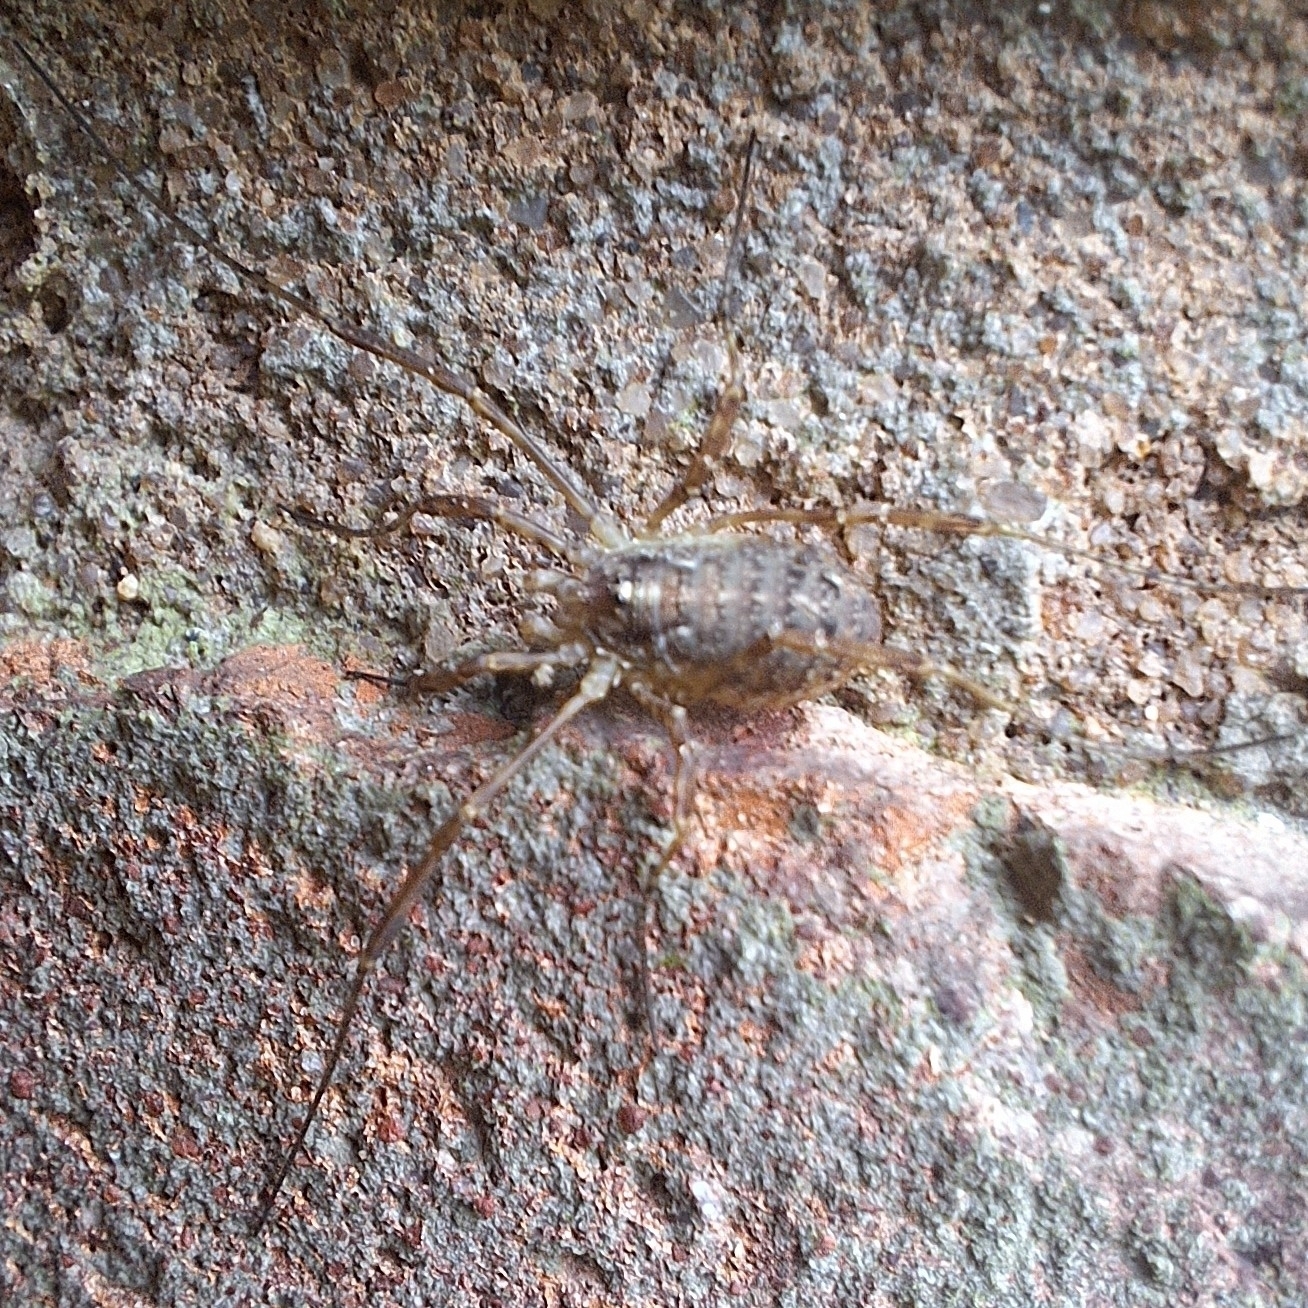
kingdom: Animalia
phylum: Arthropoda
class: Arachnida
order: Opiliones
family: Phalangiidae
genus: Paroligolophus
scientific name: Paroligolophus agrestis
